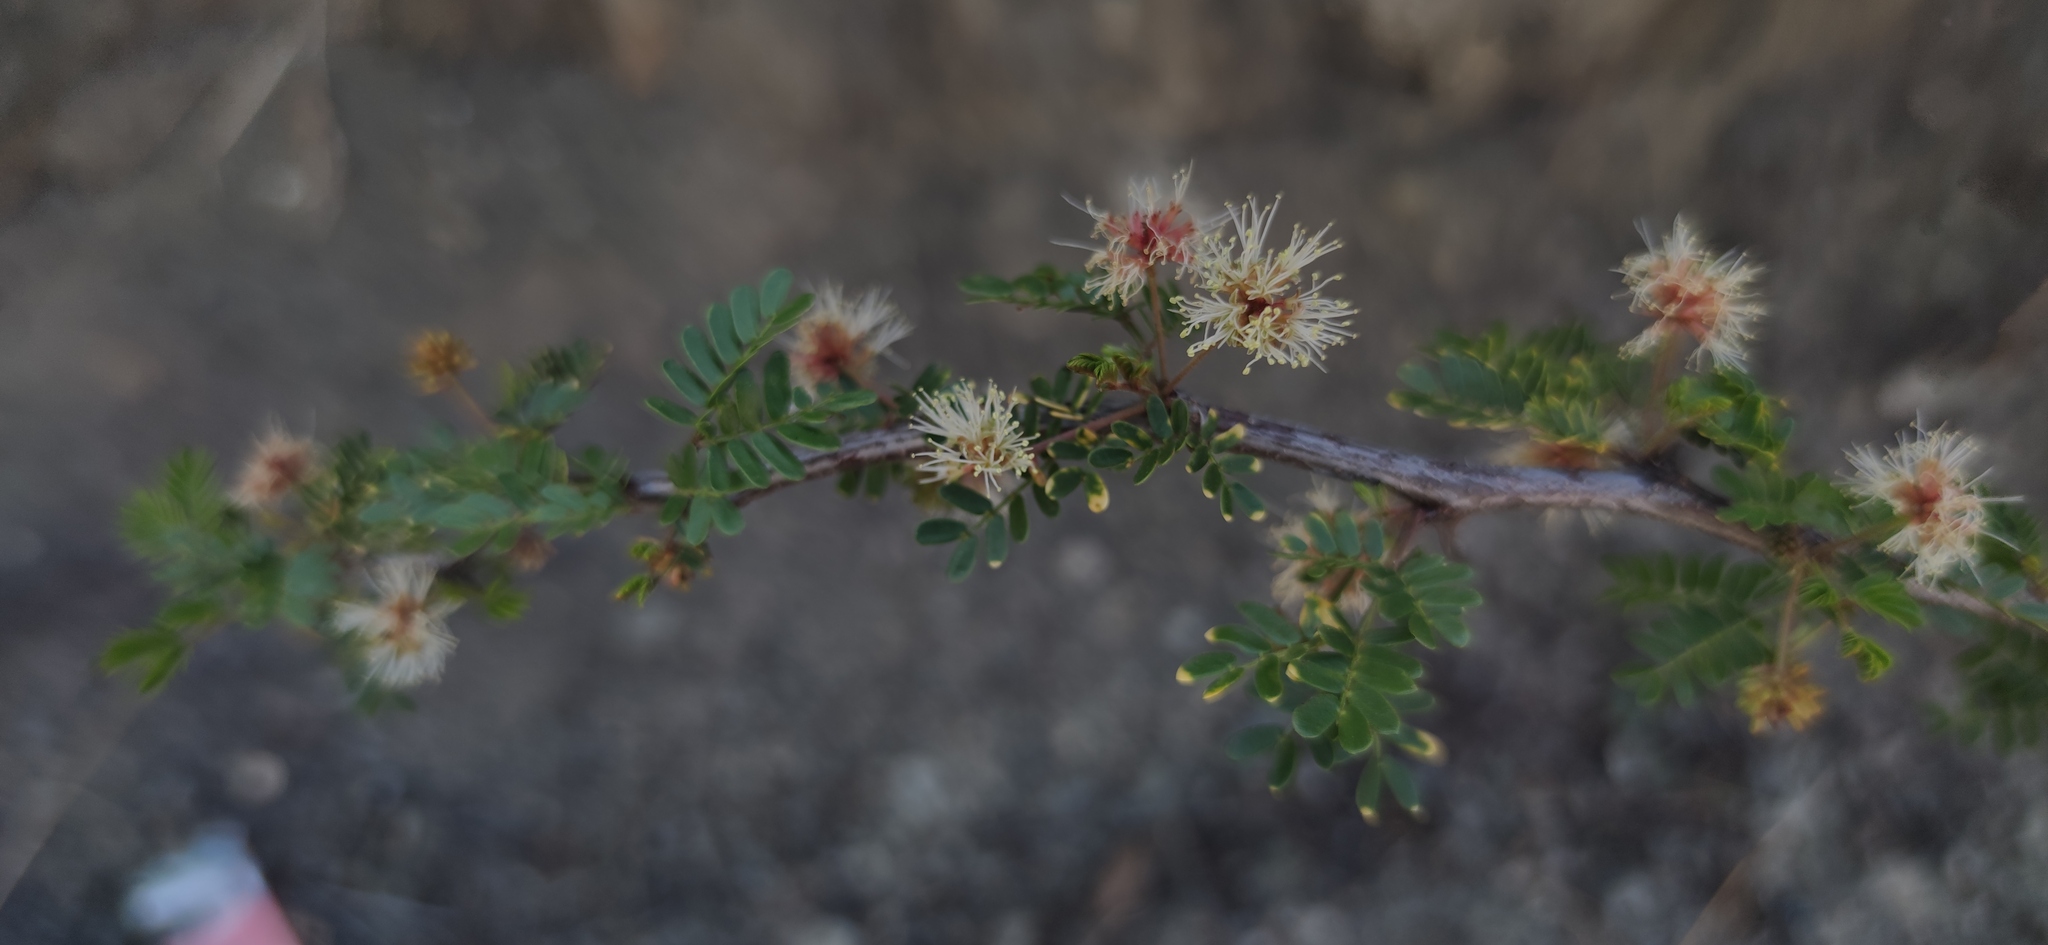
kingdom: Plantae
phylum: Tracheophyta
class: Magnoliopsida
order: Fabales
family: Fabaceae
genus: Mimosa
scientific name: Mimosa aculeaticarpa
